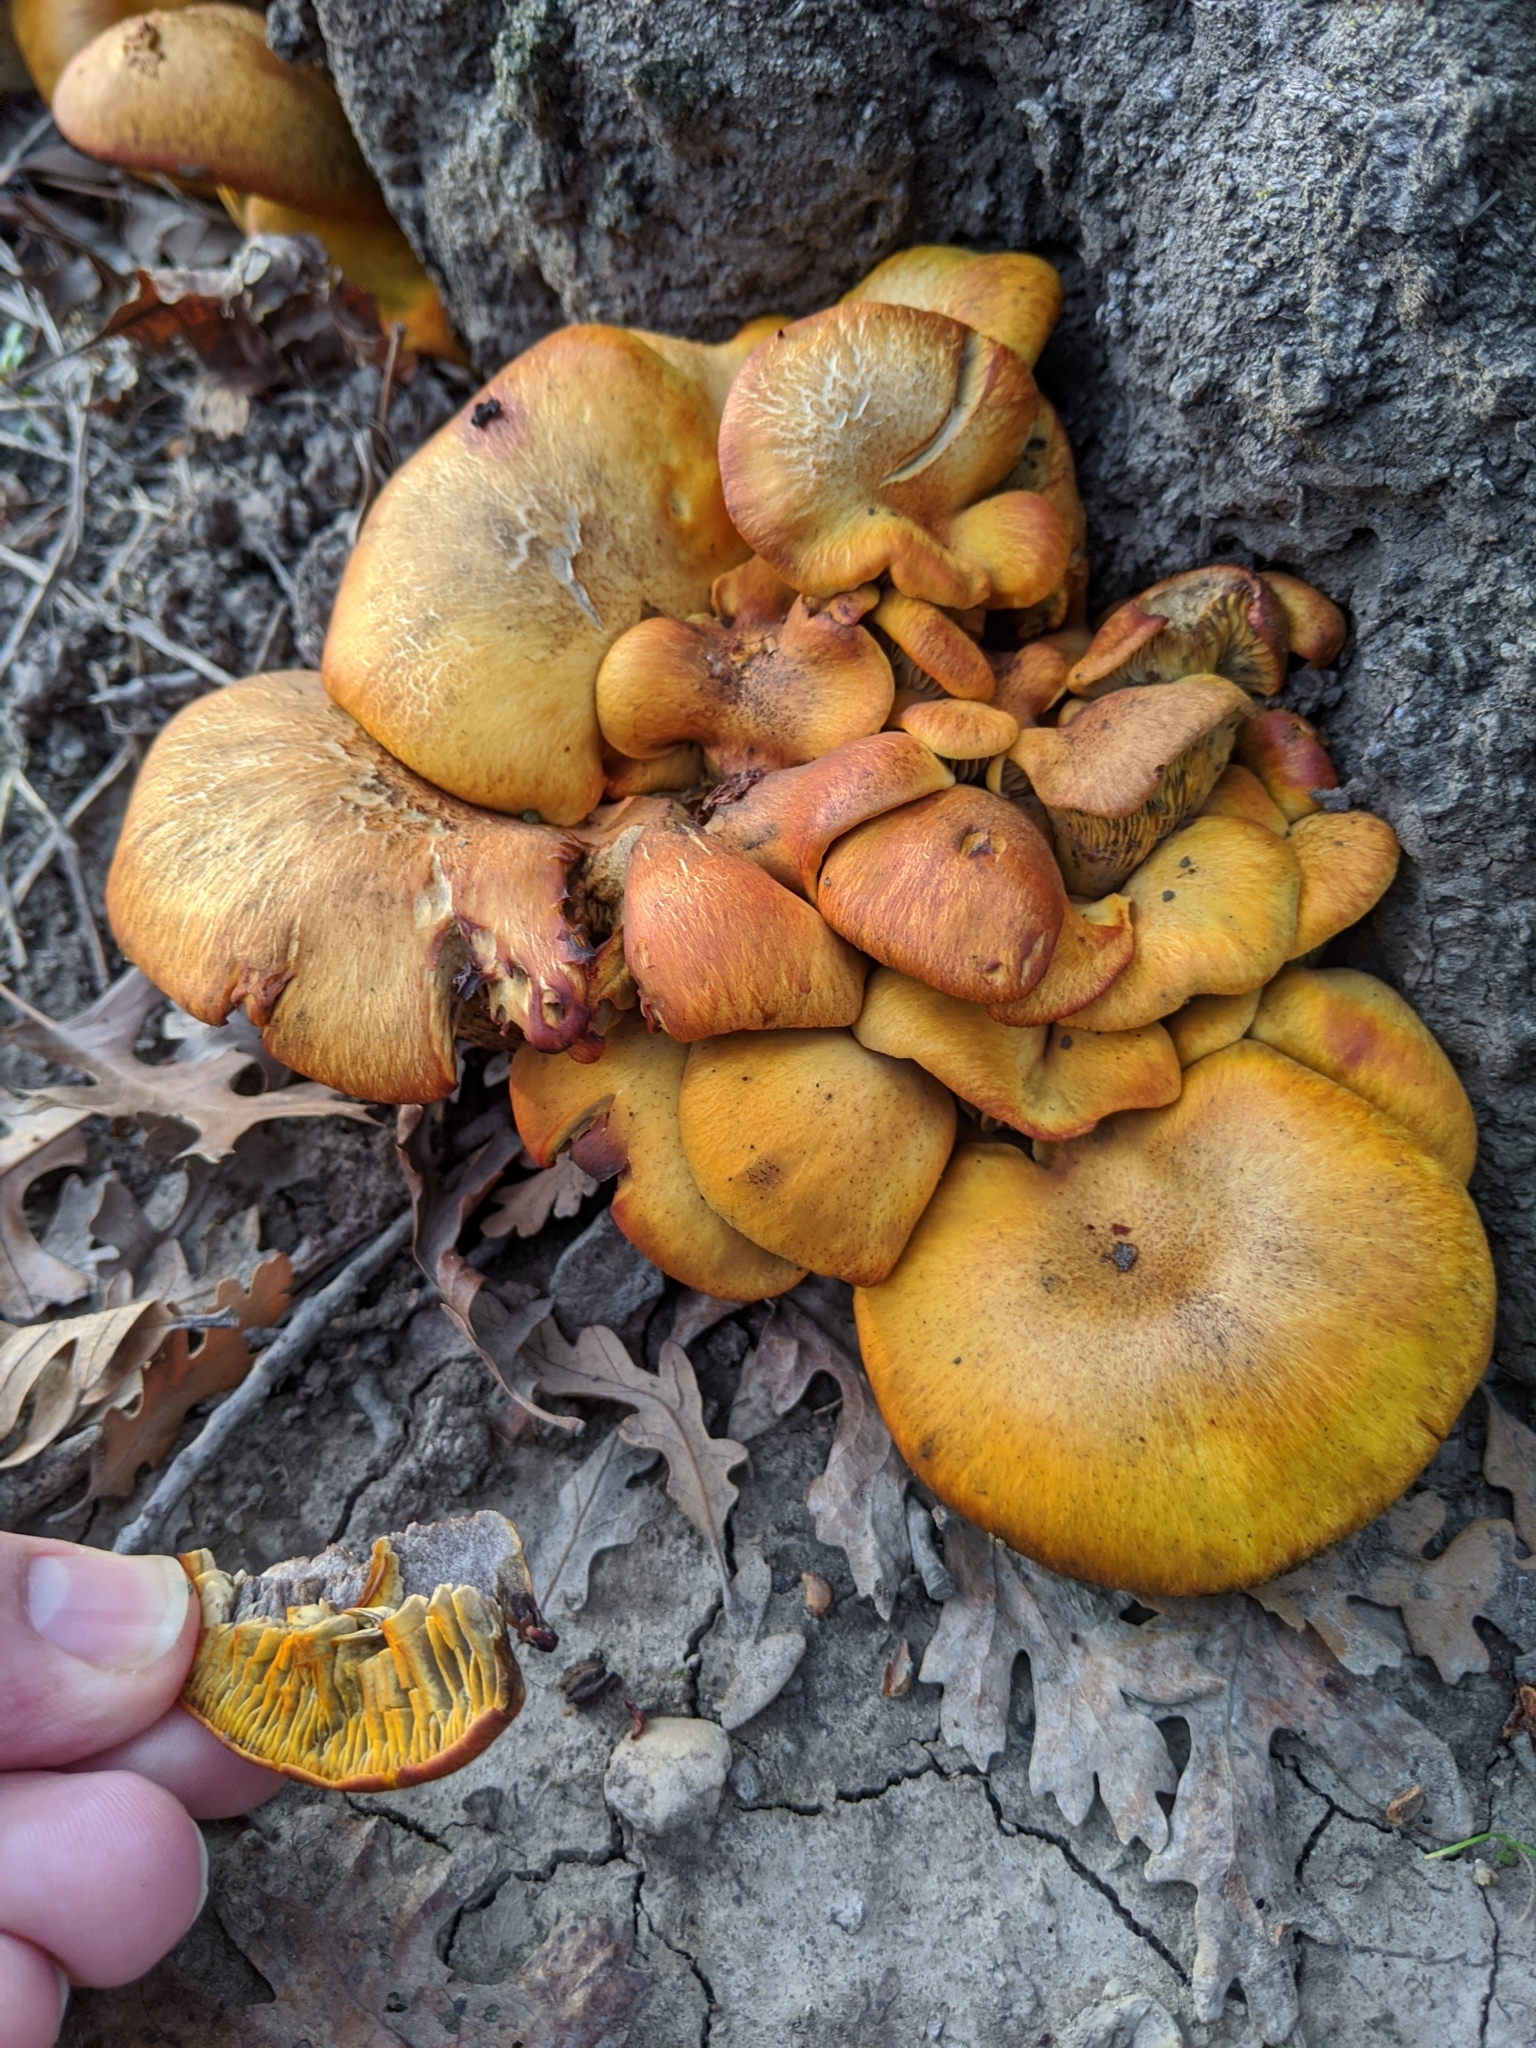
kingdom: Fungi
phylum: Basidiomycota
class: Agaricomycetes
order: Agaricales
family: Omphalotaceae
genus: Omphalotus
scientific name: Omphalotus olivascens
